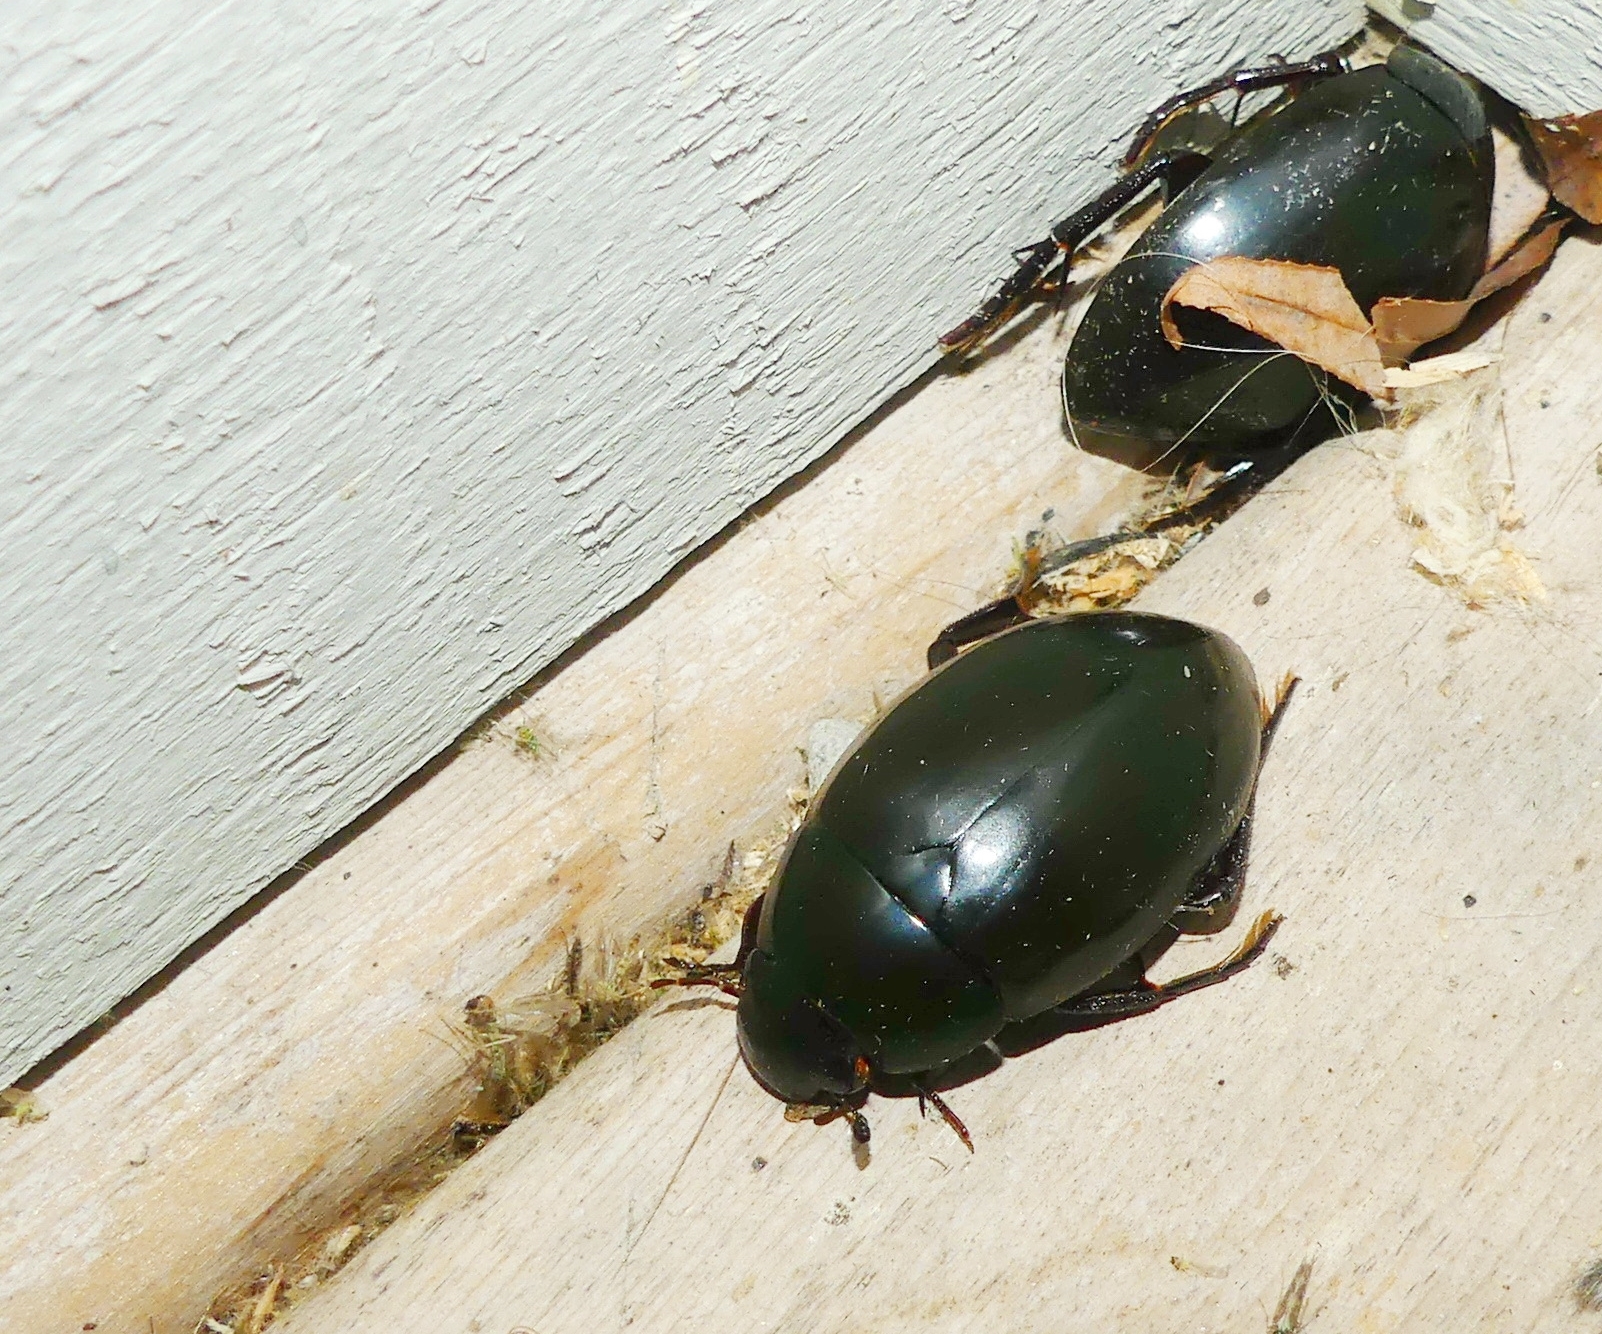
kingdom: Animalia
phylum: Arthropoda
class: Insecta
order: Coleoptera
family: Hydrophilidae
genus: Hydrophilus
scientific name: Hydrophilus ovatus
